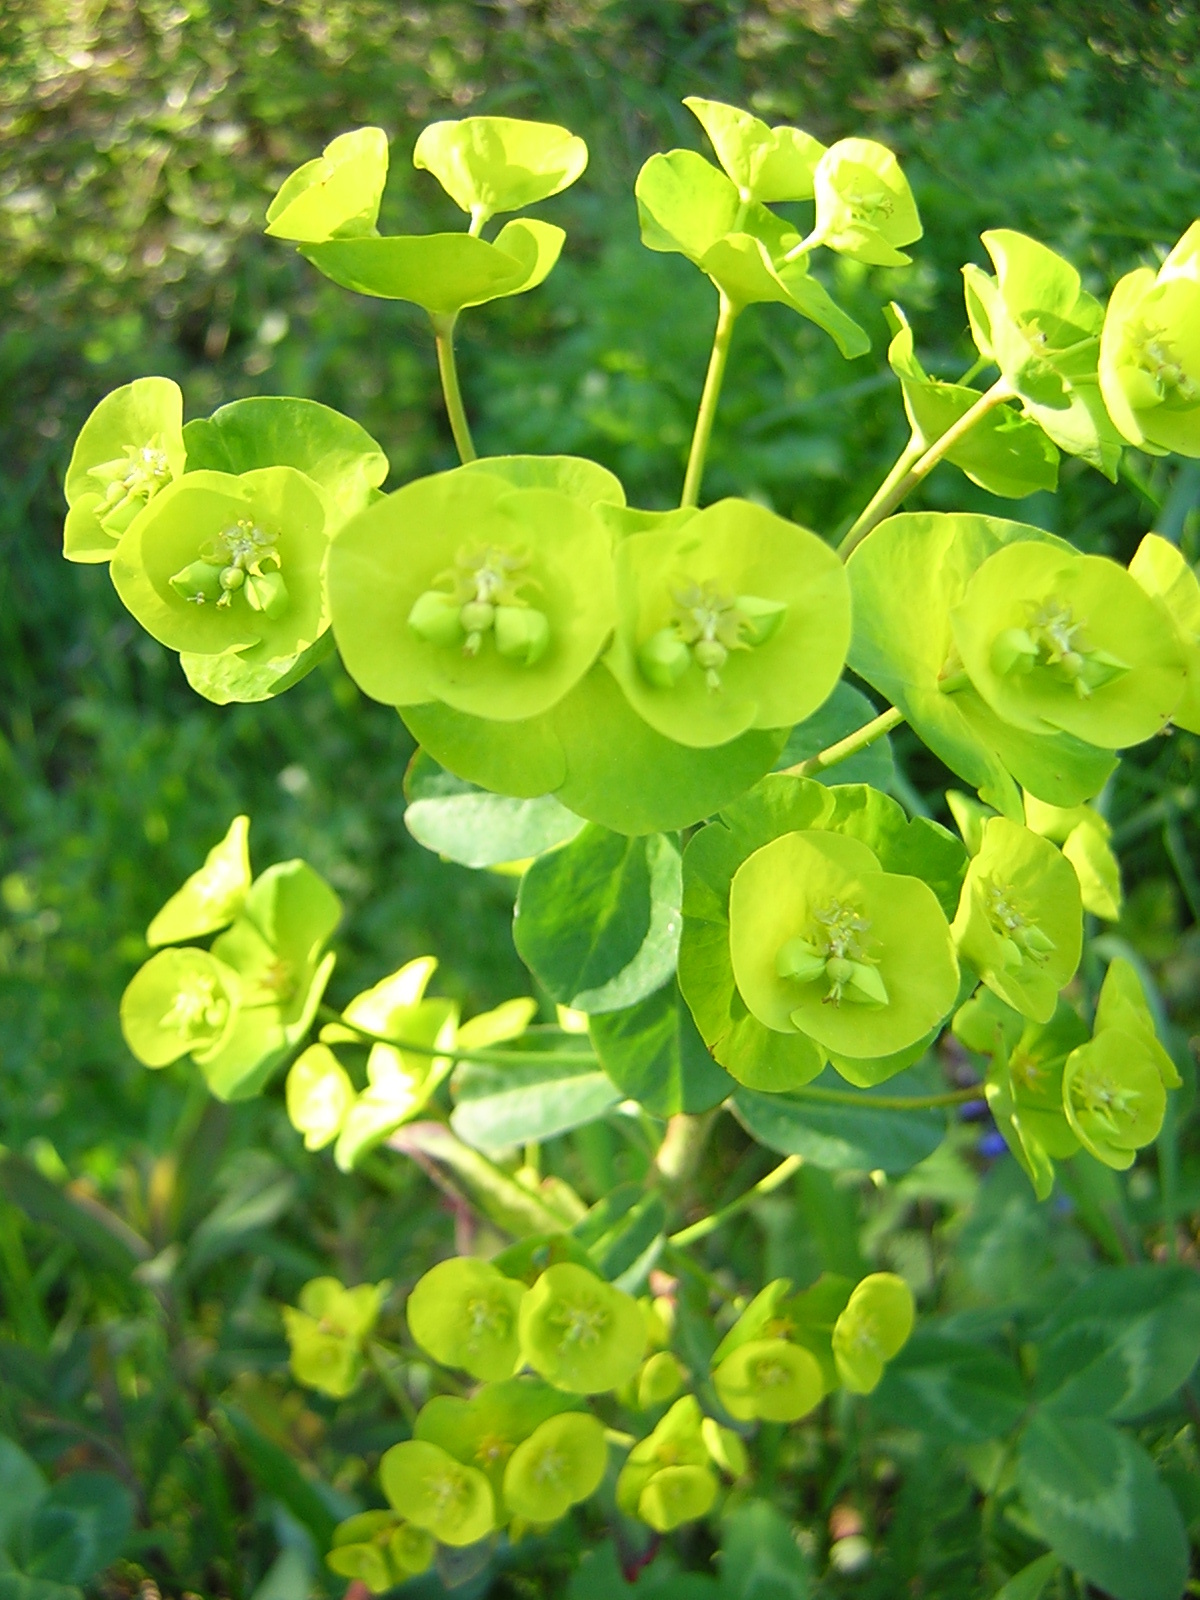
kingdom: Plantae
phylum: Tracheophyta
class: Magnoliopsida
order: Malpighiales
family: Euphorbiaceae
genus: Euphorbia
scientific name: Euphorbia amygdaloides
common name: Wood spurge
